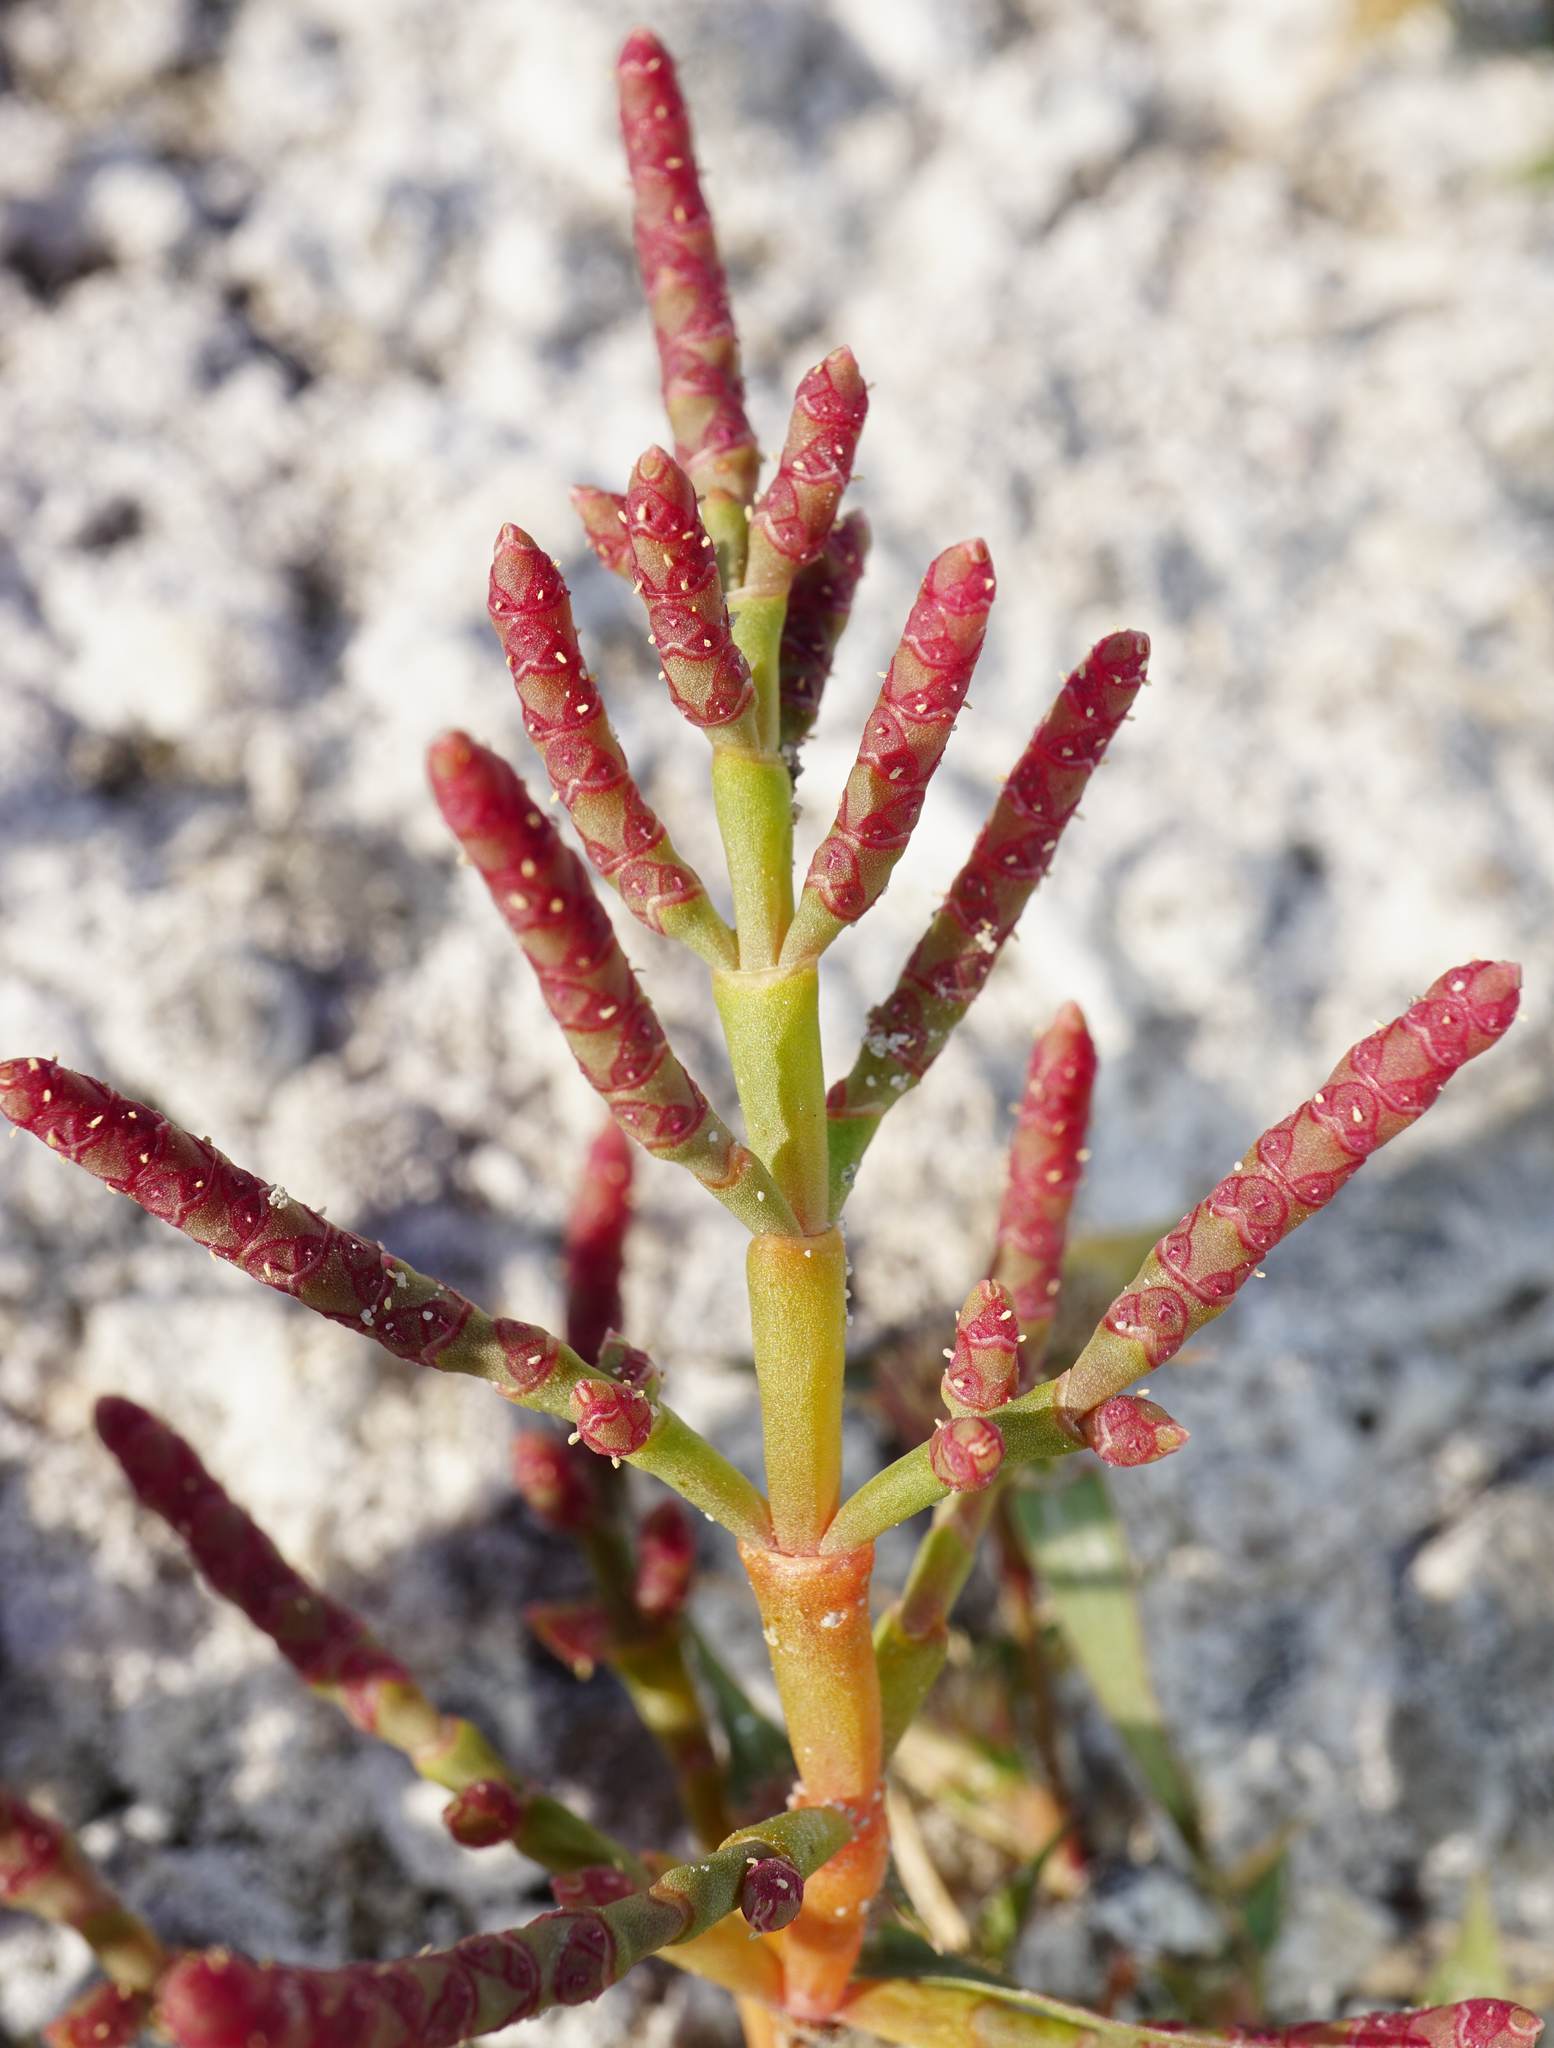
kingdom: Plantae
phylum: Tracheophyta
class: Magnoliopsida
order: Caryophyllales
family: Amaranthaceae
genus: Salicornia
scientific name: Salicornia perennans
